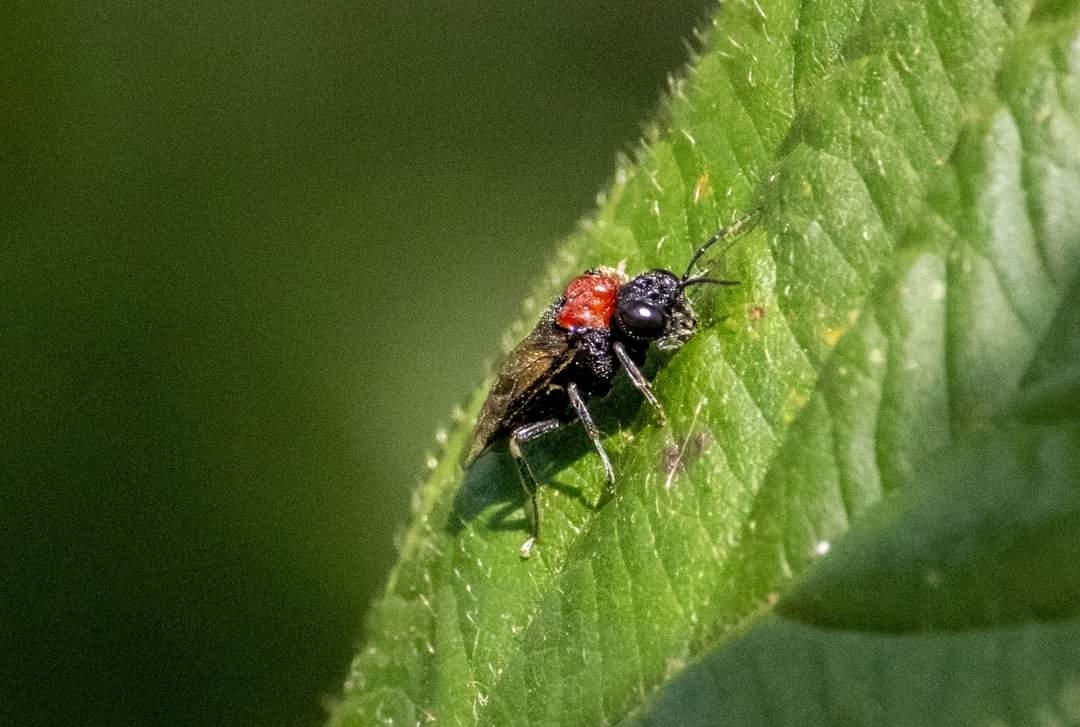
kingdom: Animalia
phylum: Arthropoda
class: Insecta
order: Hymenoptera
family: Tenthredinidae
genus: Eriocampa
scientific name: Eriocampa ovata
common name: Alder wooly sawfly
